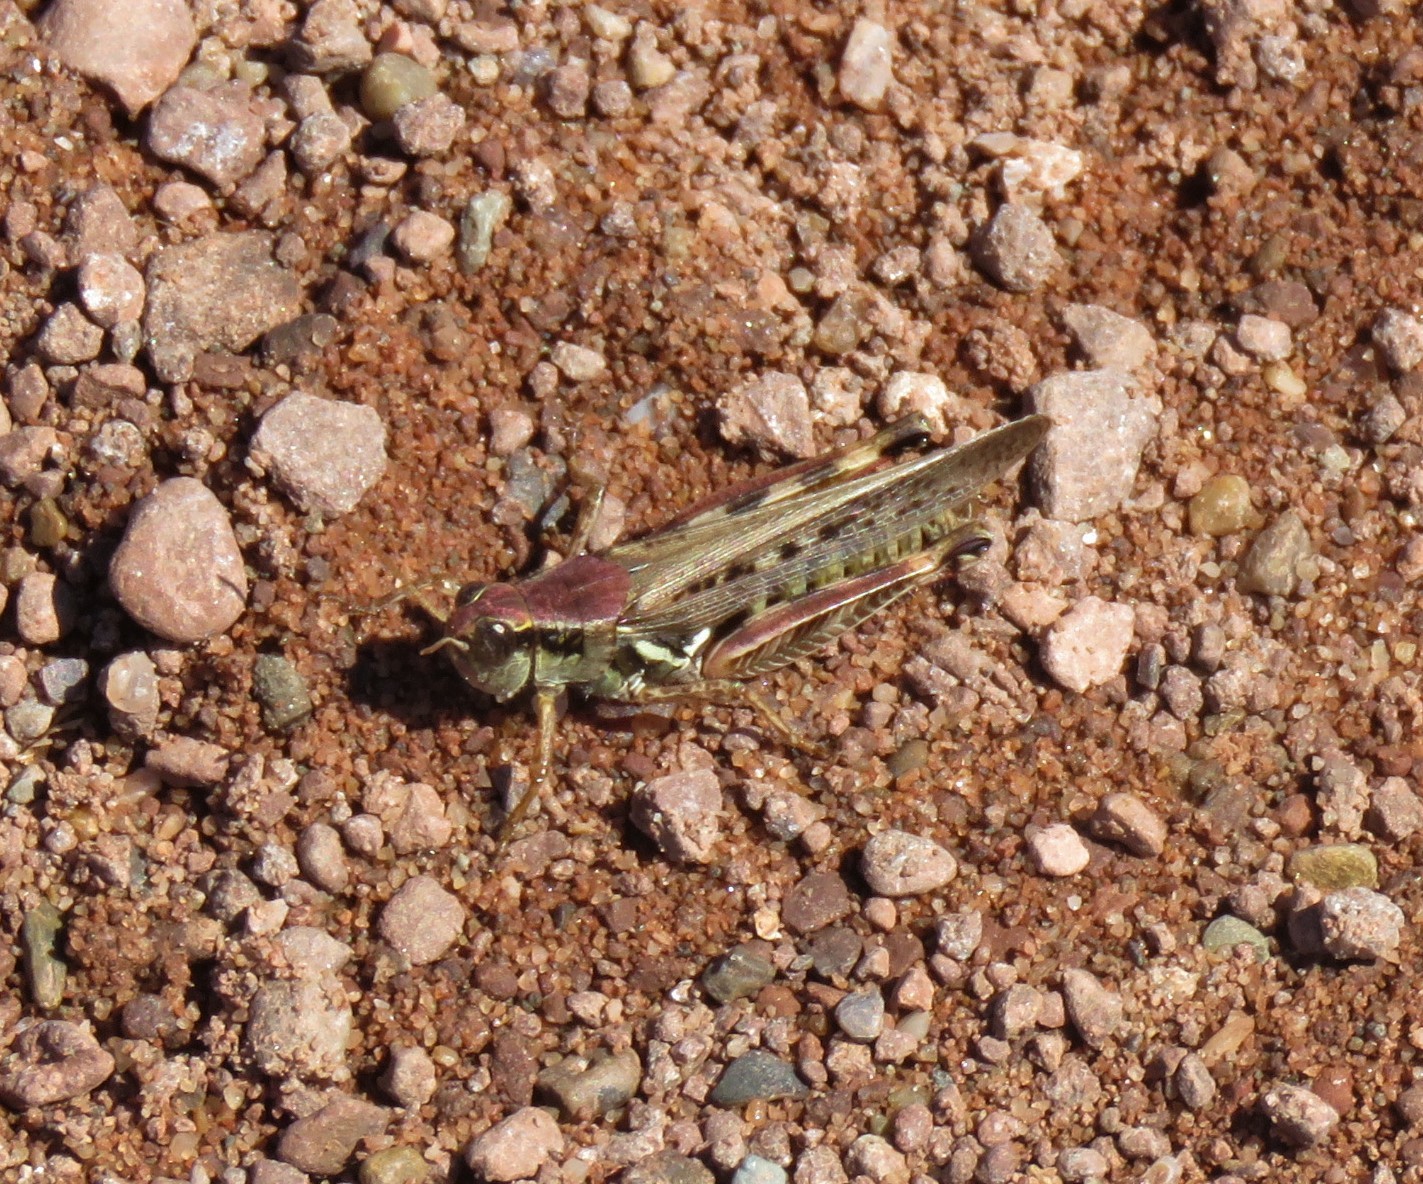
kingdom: Animalia
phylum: Arthropoda
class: Insecta
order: Orthoptera
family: Acrididae
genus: Melanoplus
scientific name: Melanoplus femurrubrum
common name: Red-legged grasshopper
